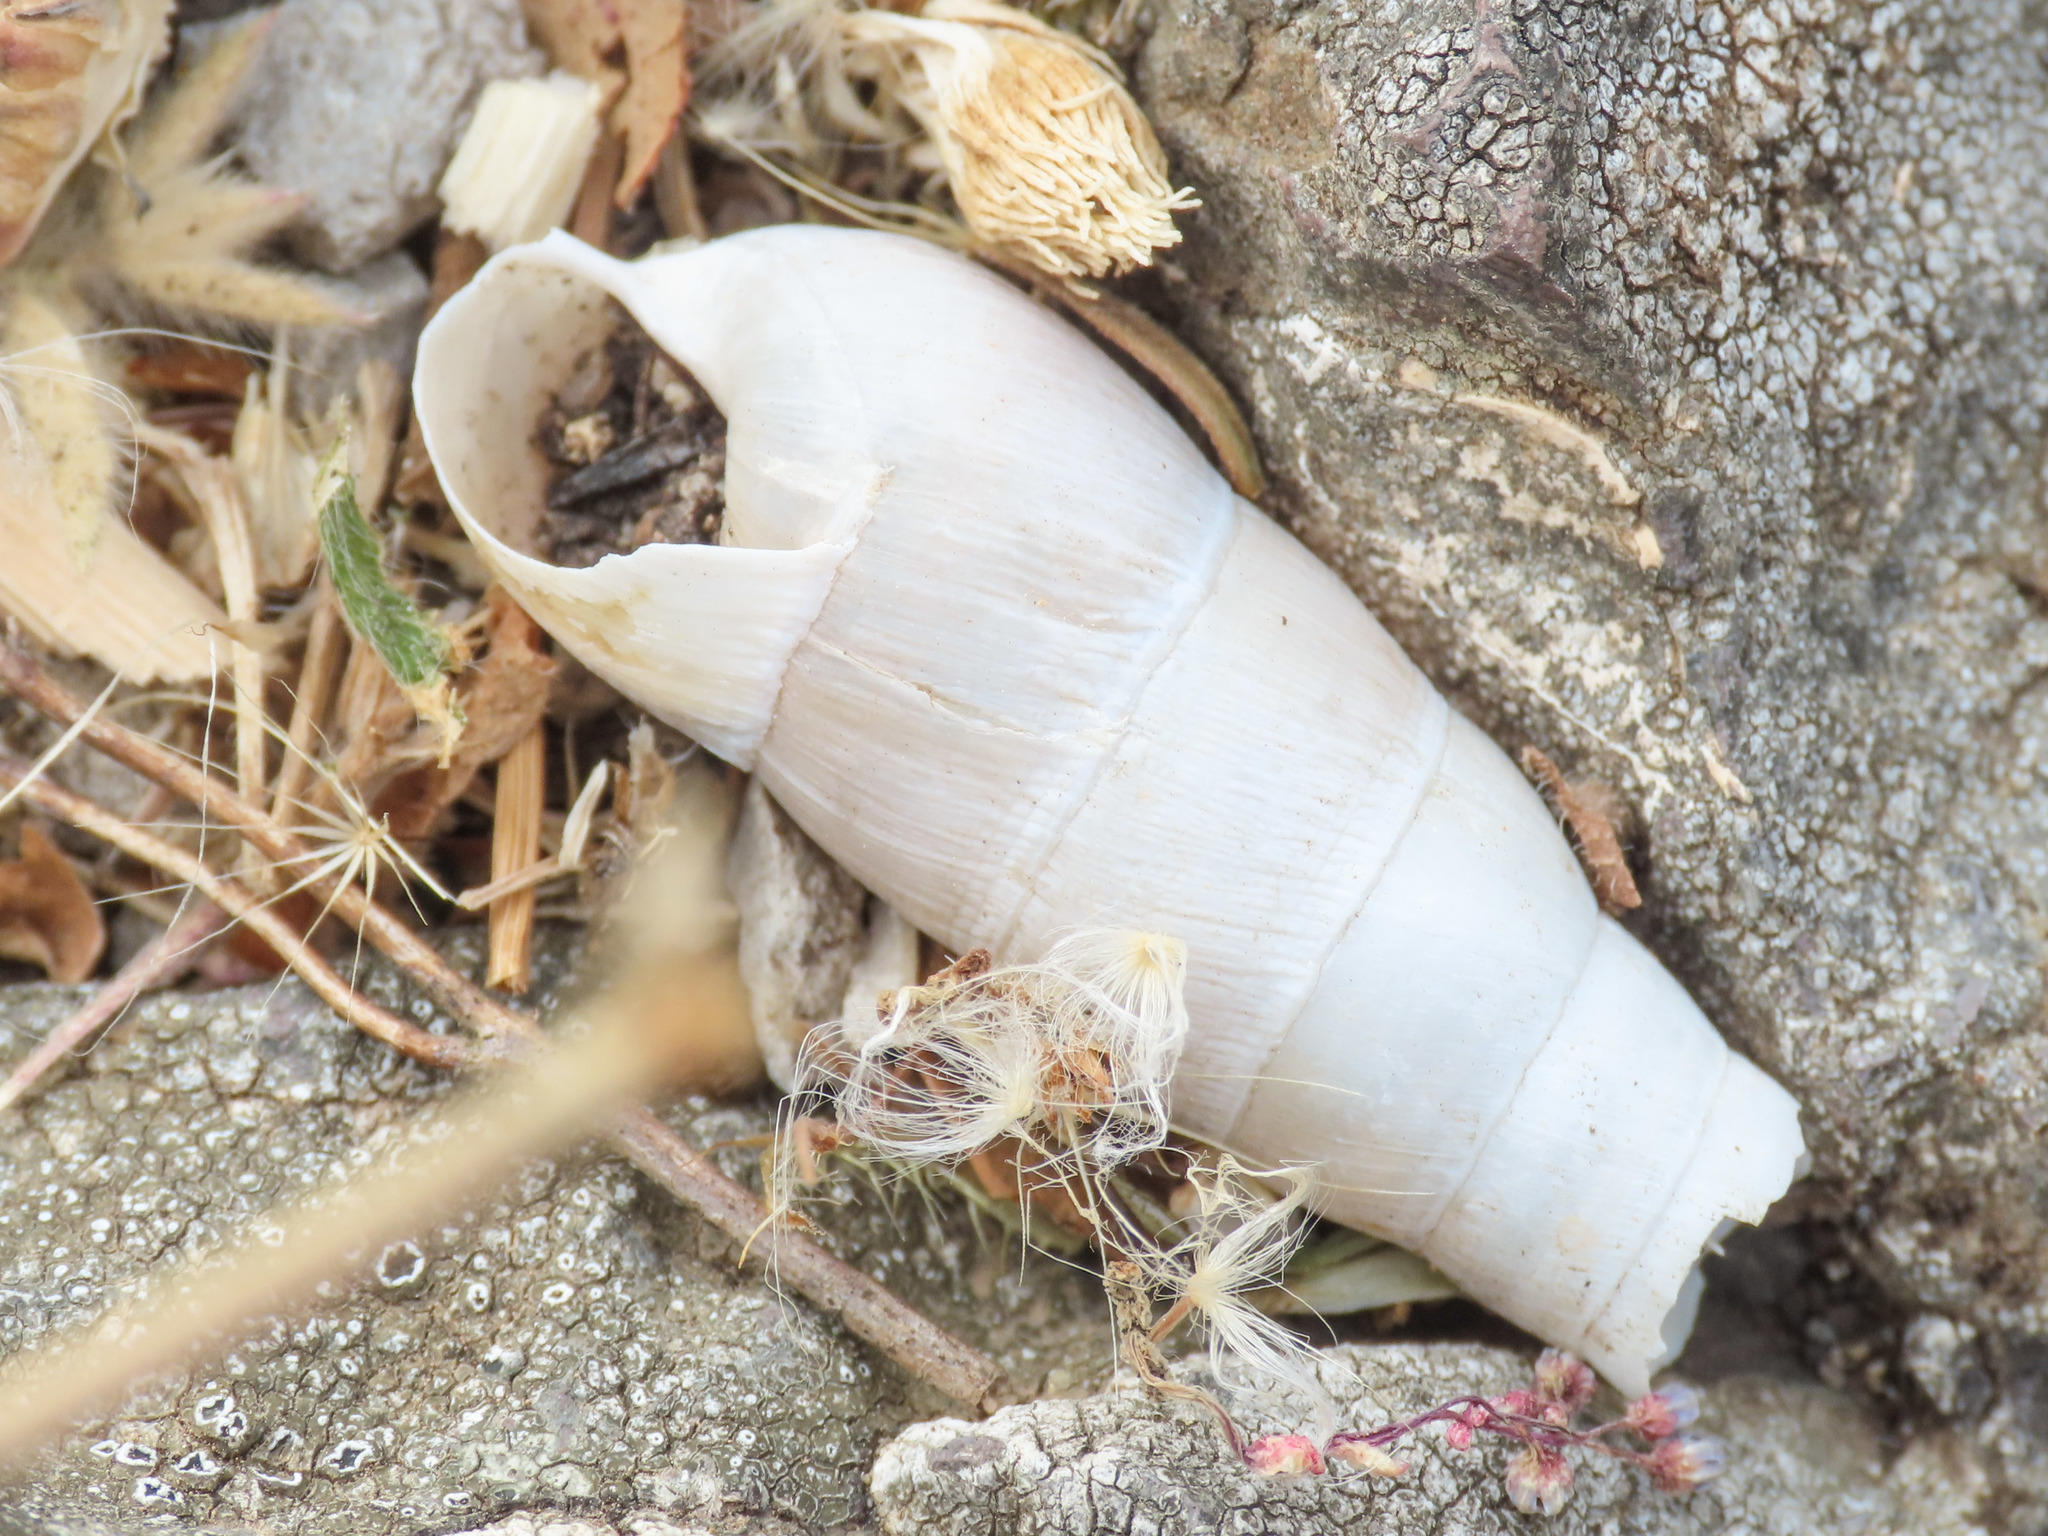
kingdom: Animalia
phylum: Mollusca
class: Gastropoda
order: Stylommatophora
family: Achatinidae
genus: Rumina
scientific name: Rumina decollata
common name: Decollate snail
